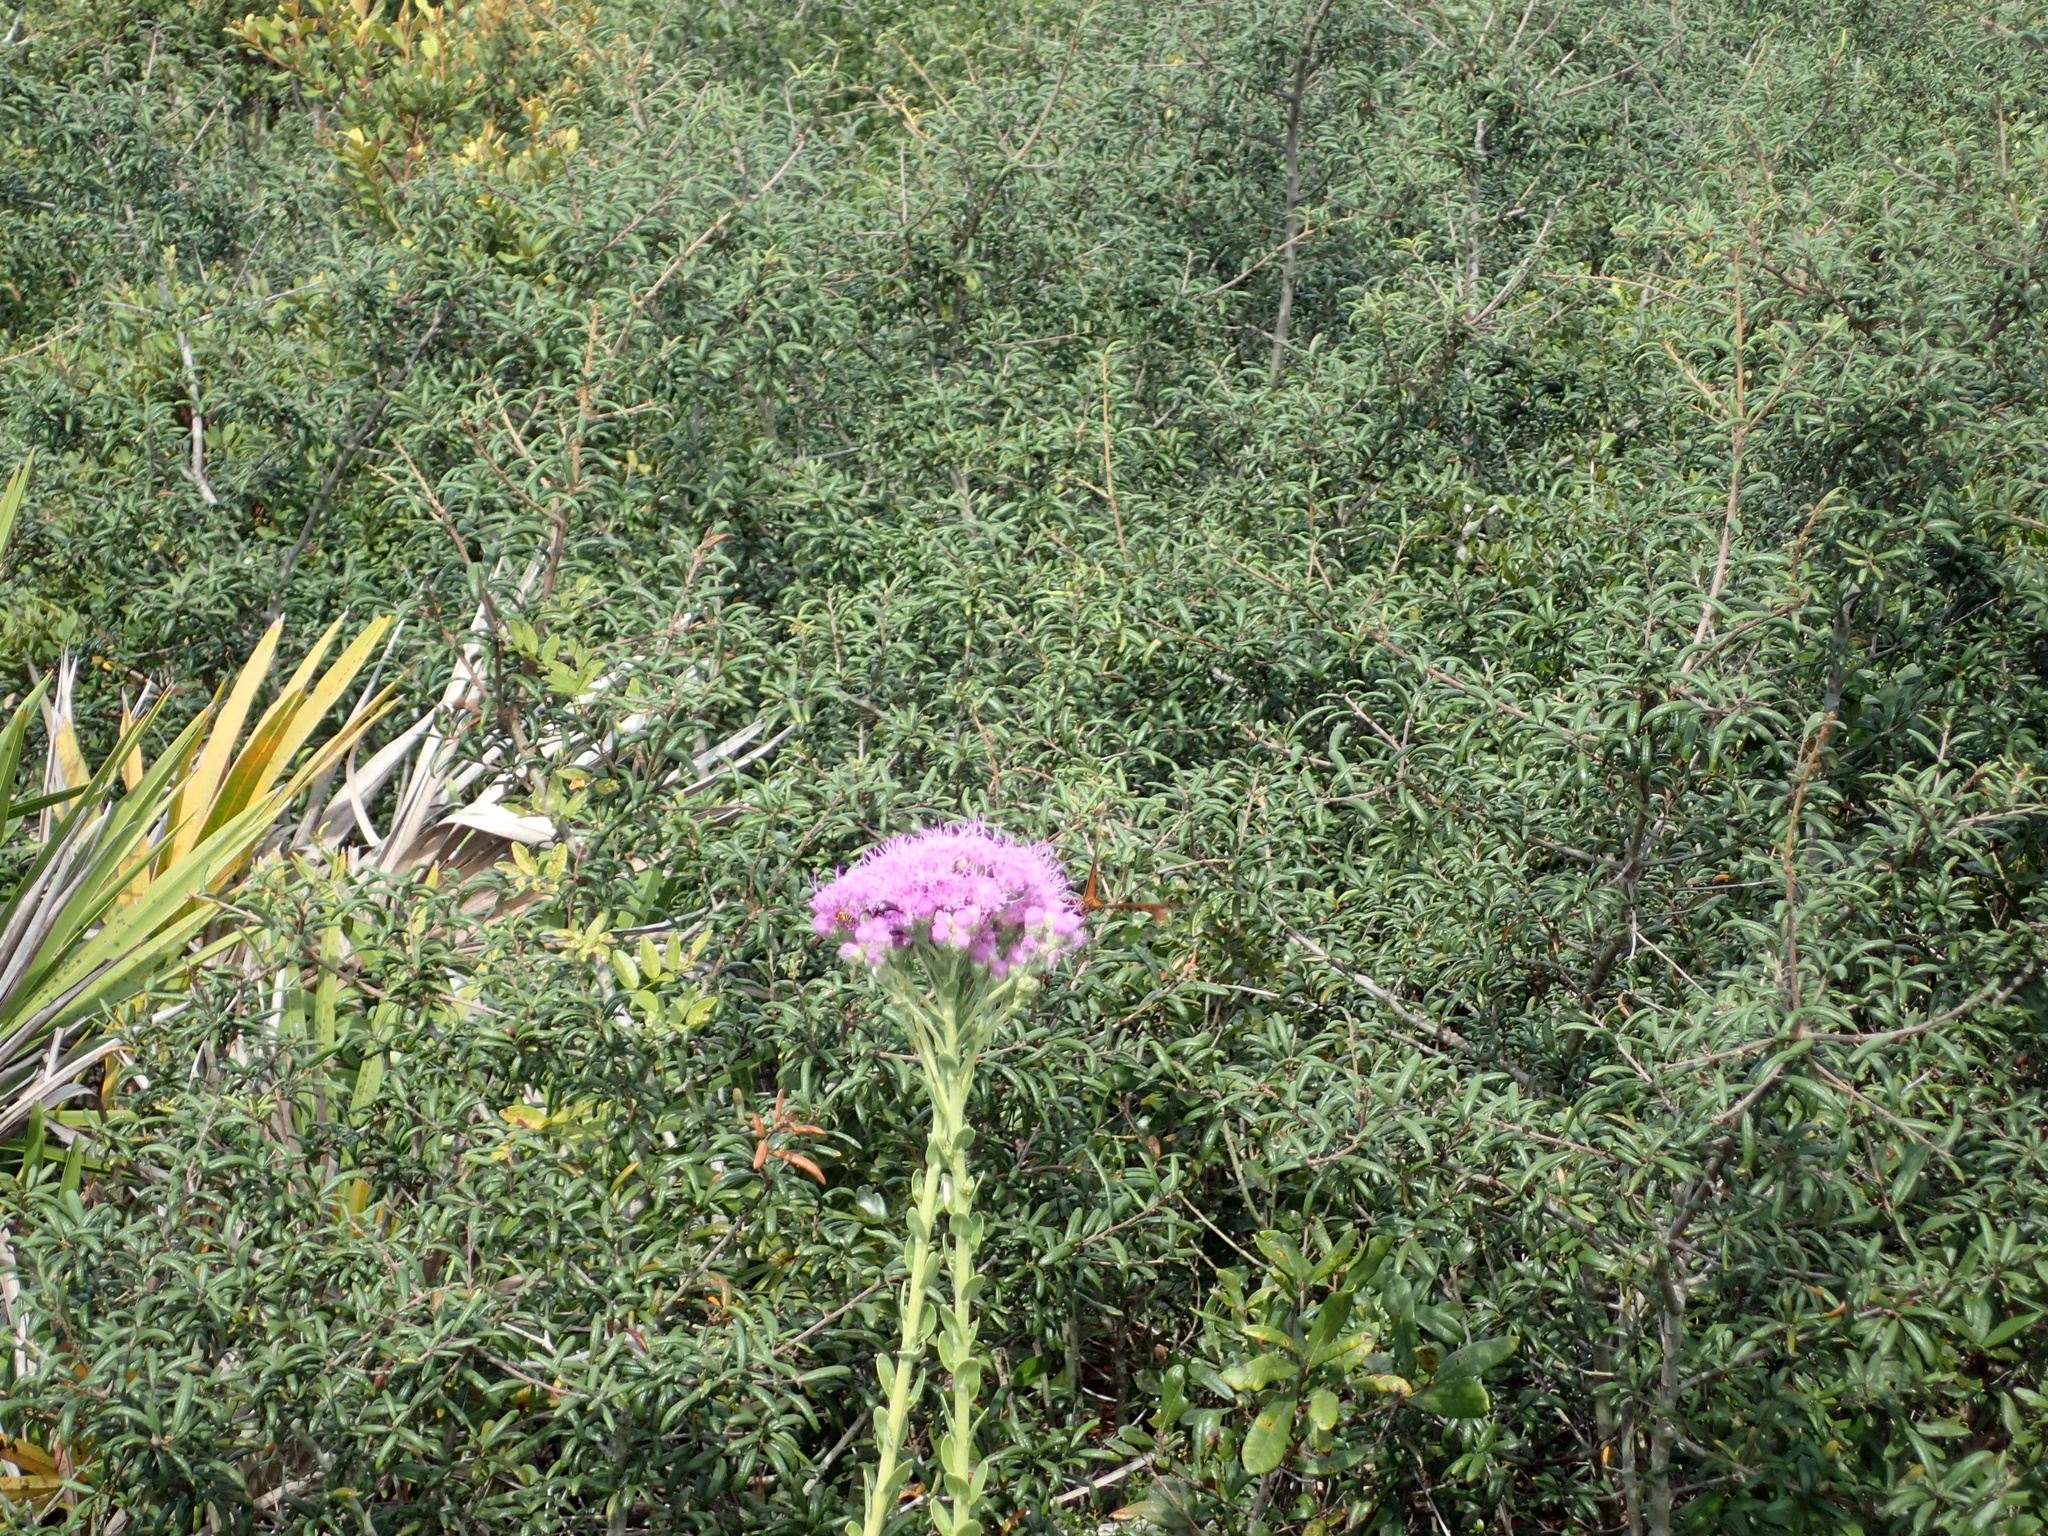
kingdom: Animalia
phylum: Arthropoda
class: Insecta
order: Lepidoptera
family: Nymphalidae
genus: Dione
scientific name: Dione vanillae
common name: Gulf fritillary
